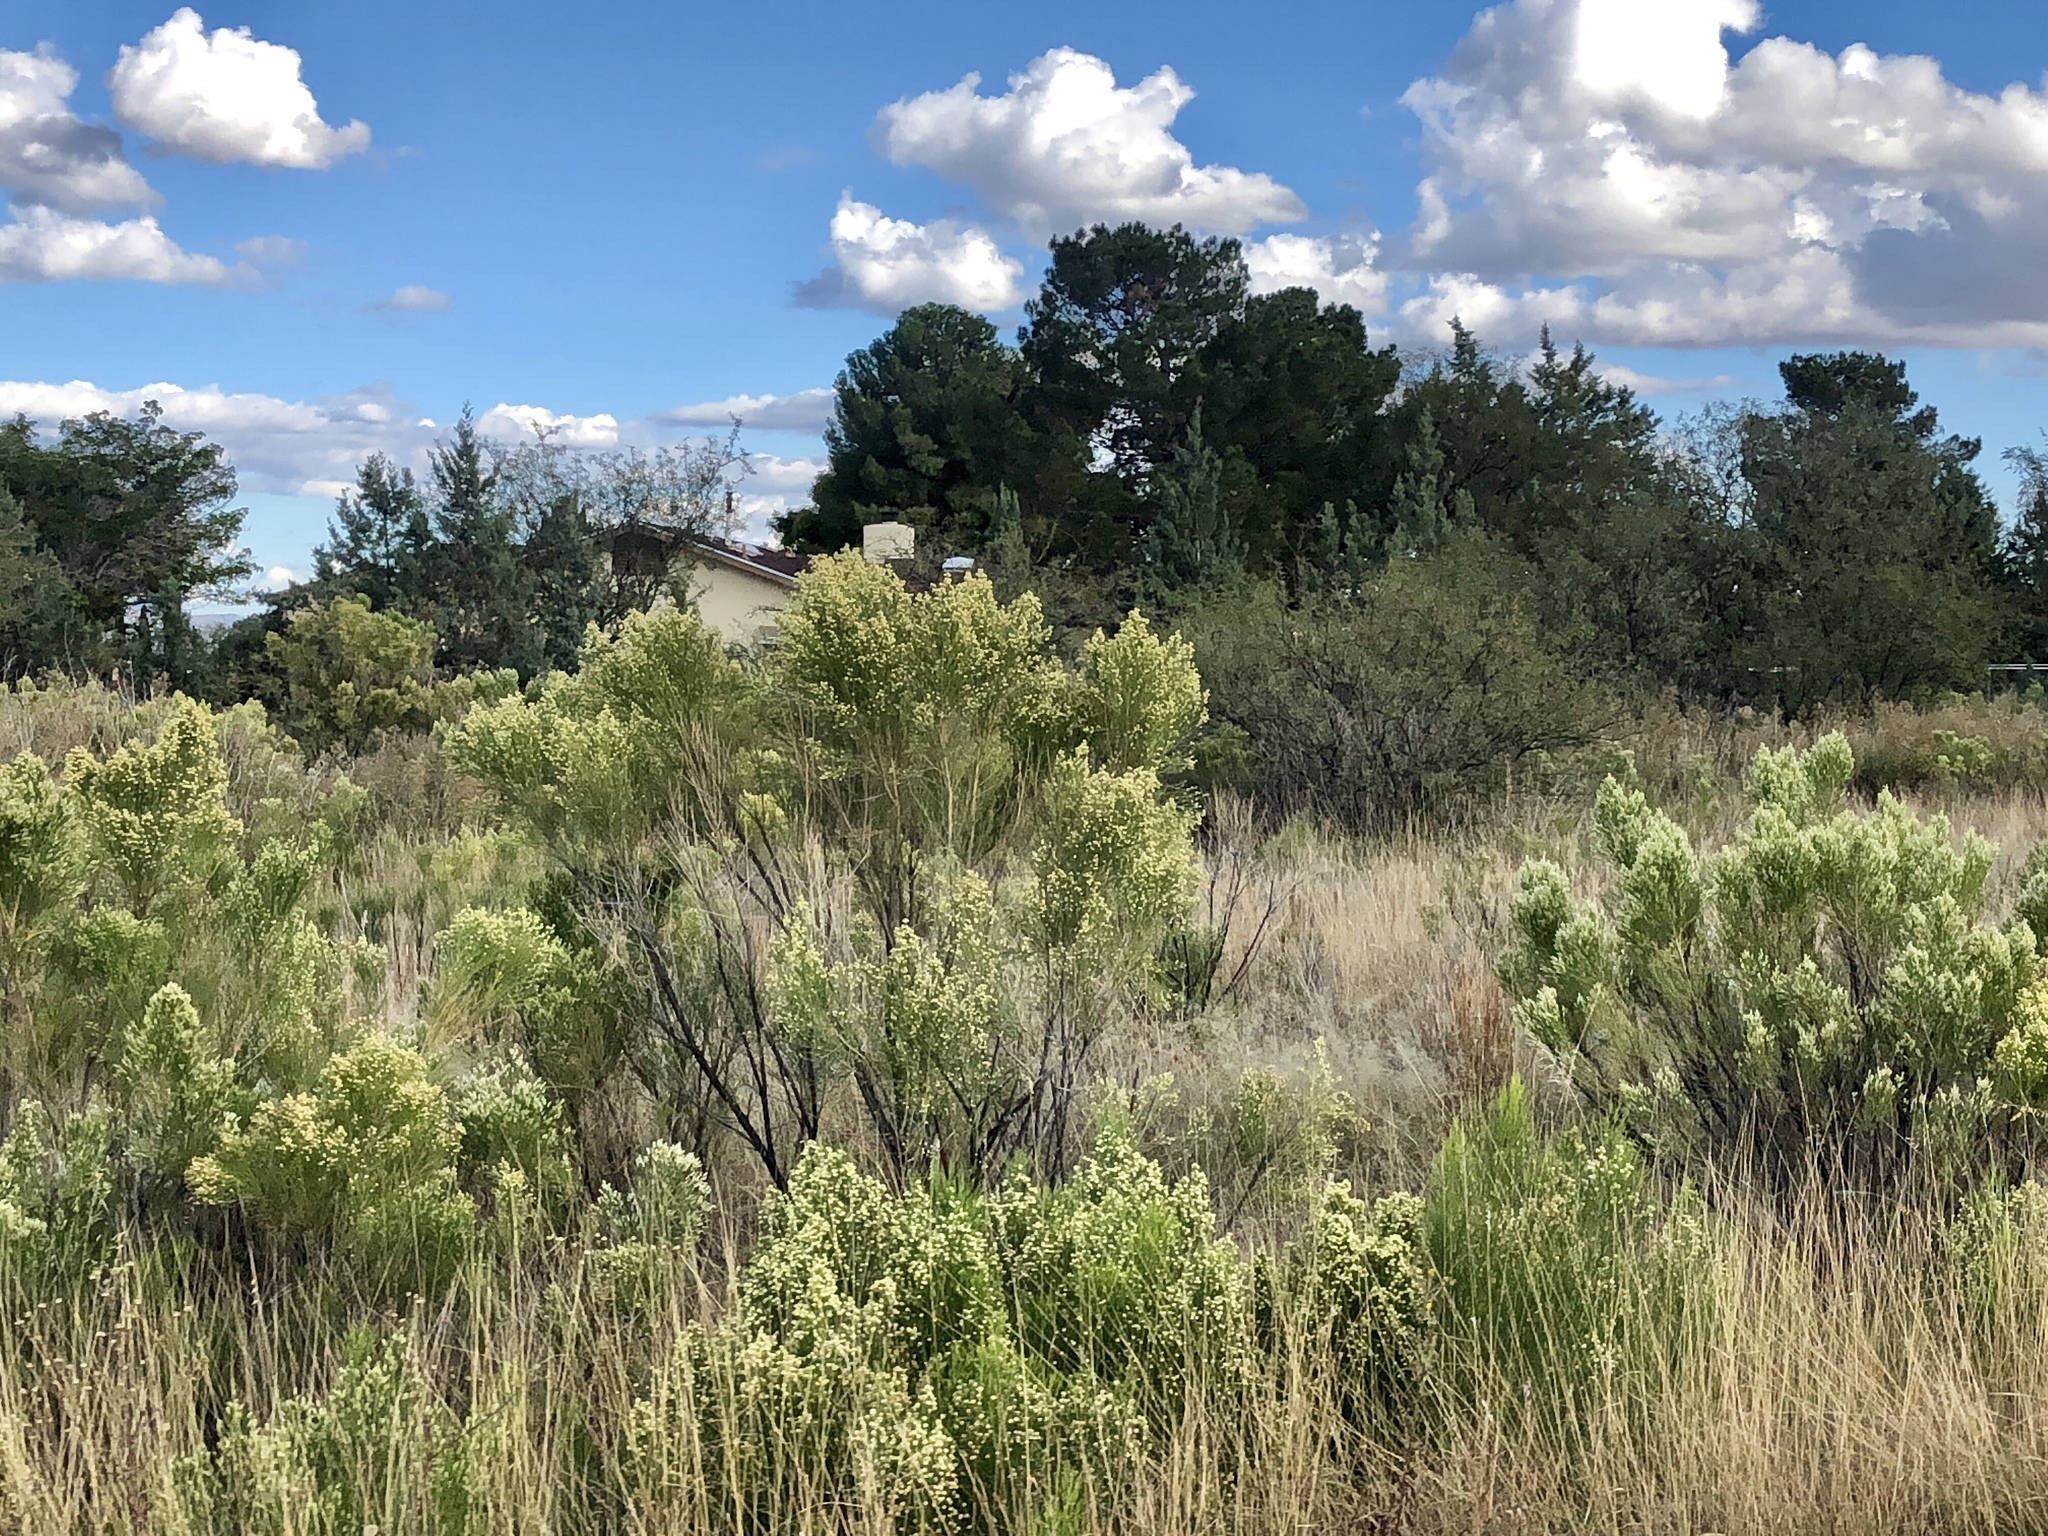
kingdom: Plantae
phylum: Tracheophyta
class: Magnoliopsida
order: Asterales
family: Asteraceae
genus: Baccharis
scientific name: Baccharis sarothroides
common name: Desert-broom
